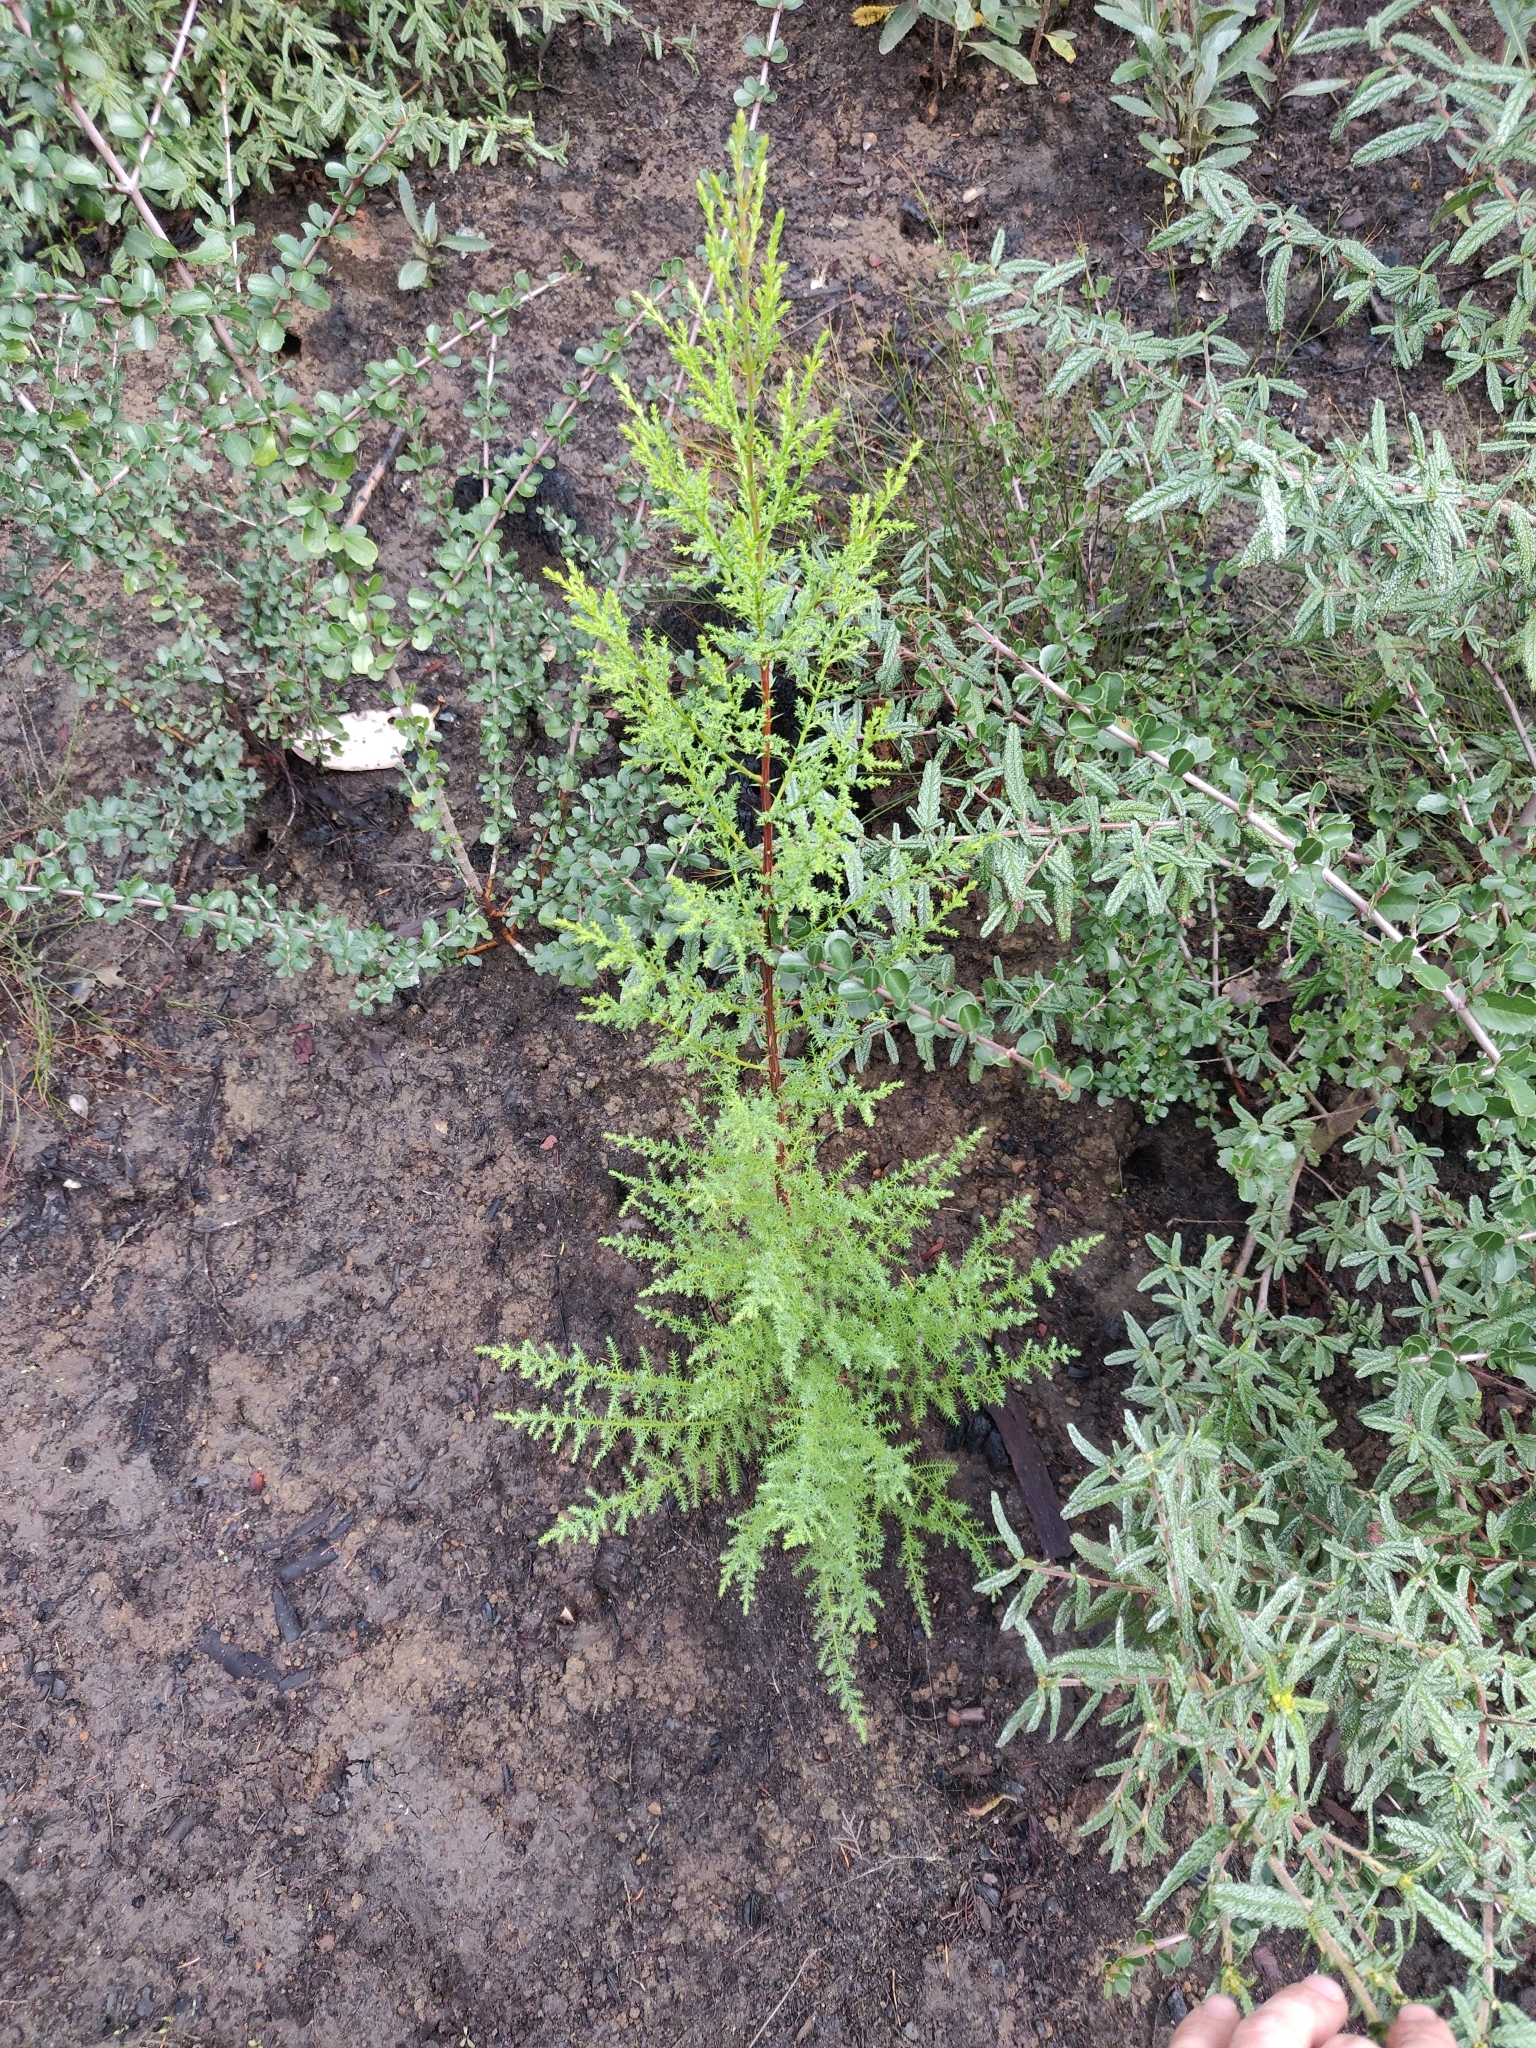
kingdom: Plantae
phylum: Tracheophyta
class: Pinopsida
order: Pinales
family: Cupressaceae
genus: Cupressus
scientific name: Cupressus goveniana
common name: Gowen cypress
